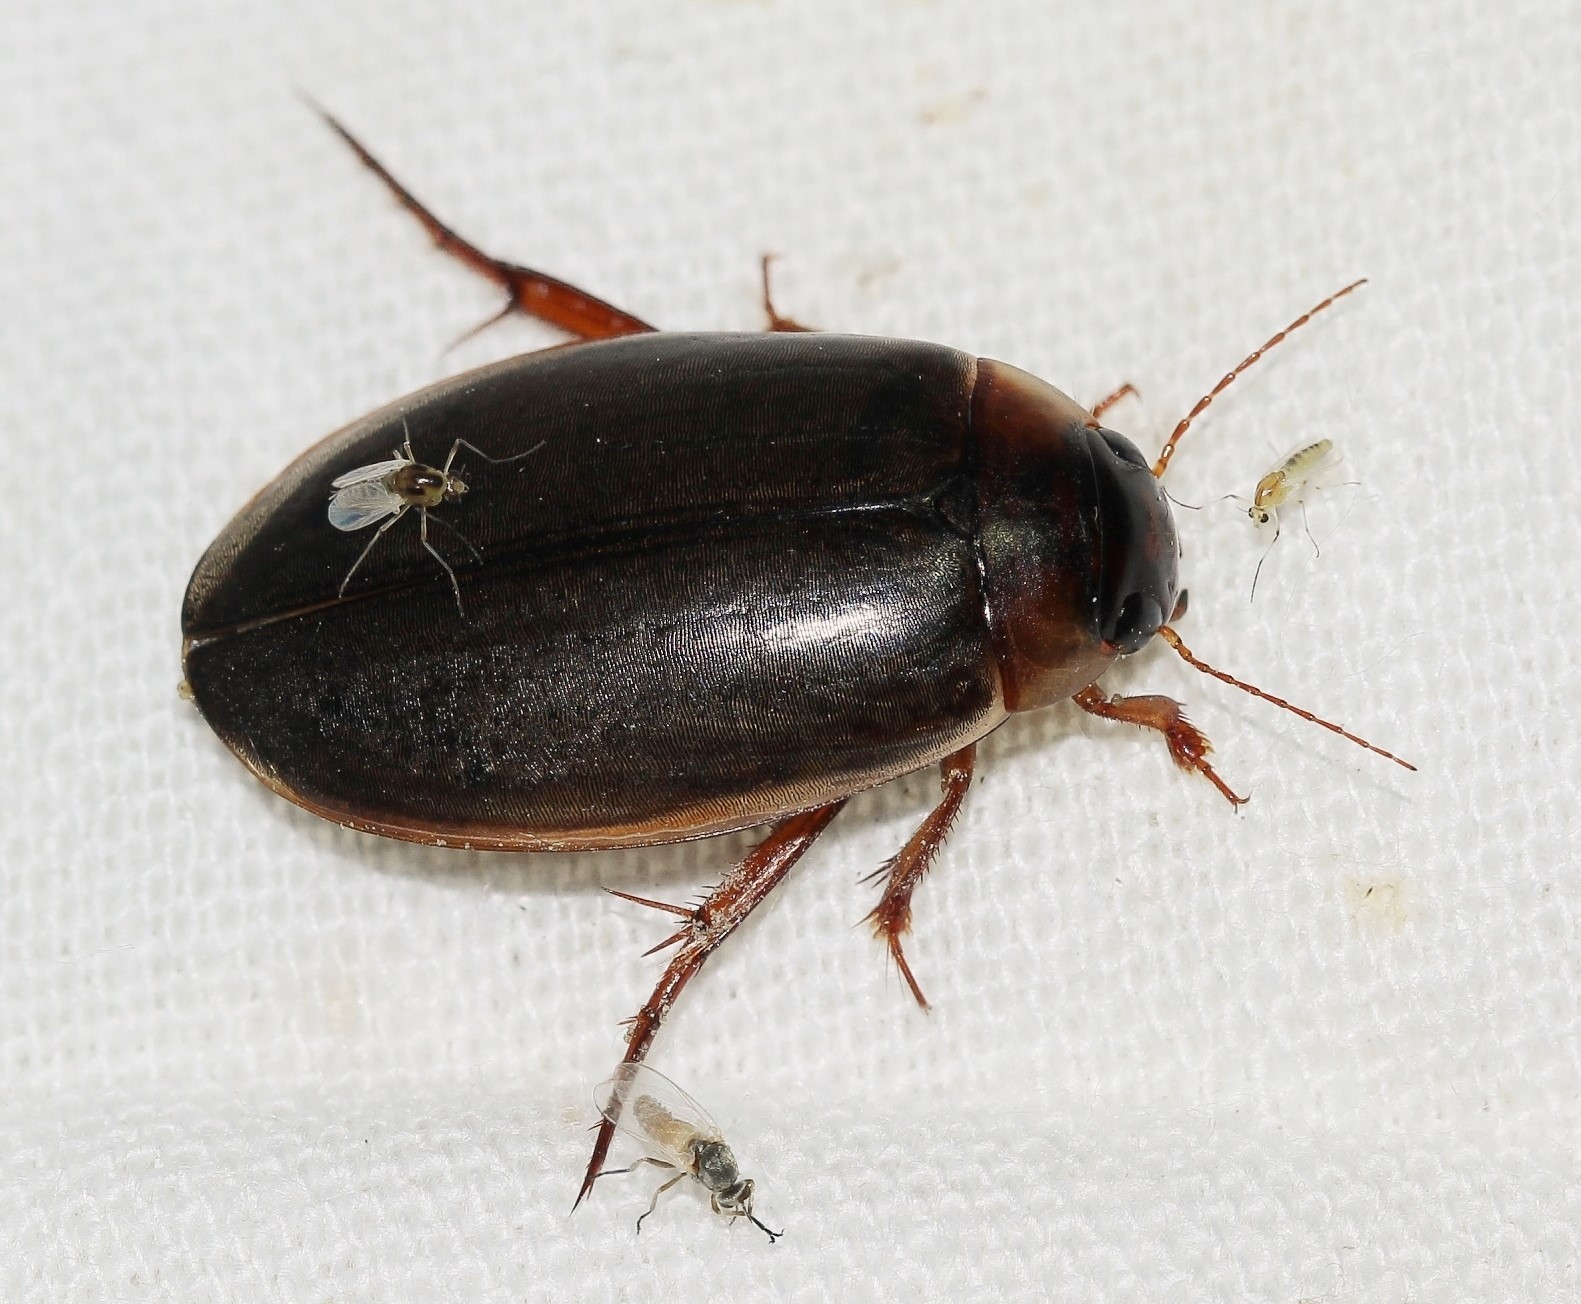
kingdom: Animalia
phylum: Arthropoda
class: Insecta
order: Coleoptera
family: Dytiscidae
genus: Colymbetes
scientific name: Colymbetes
